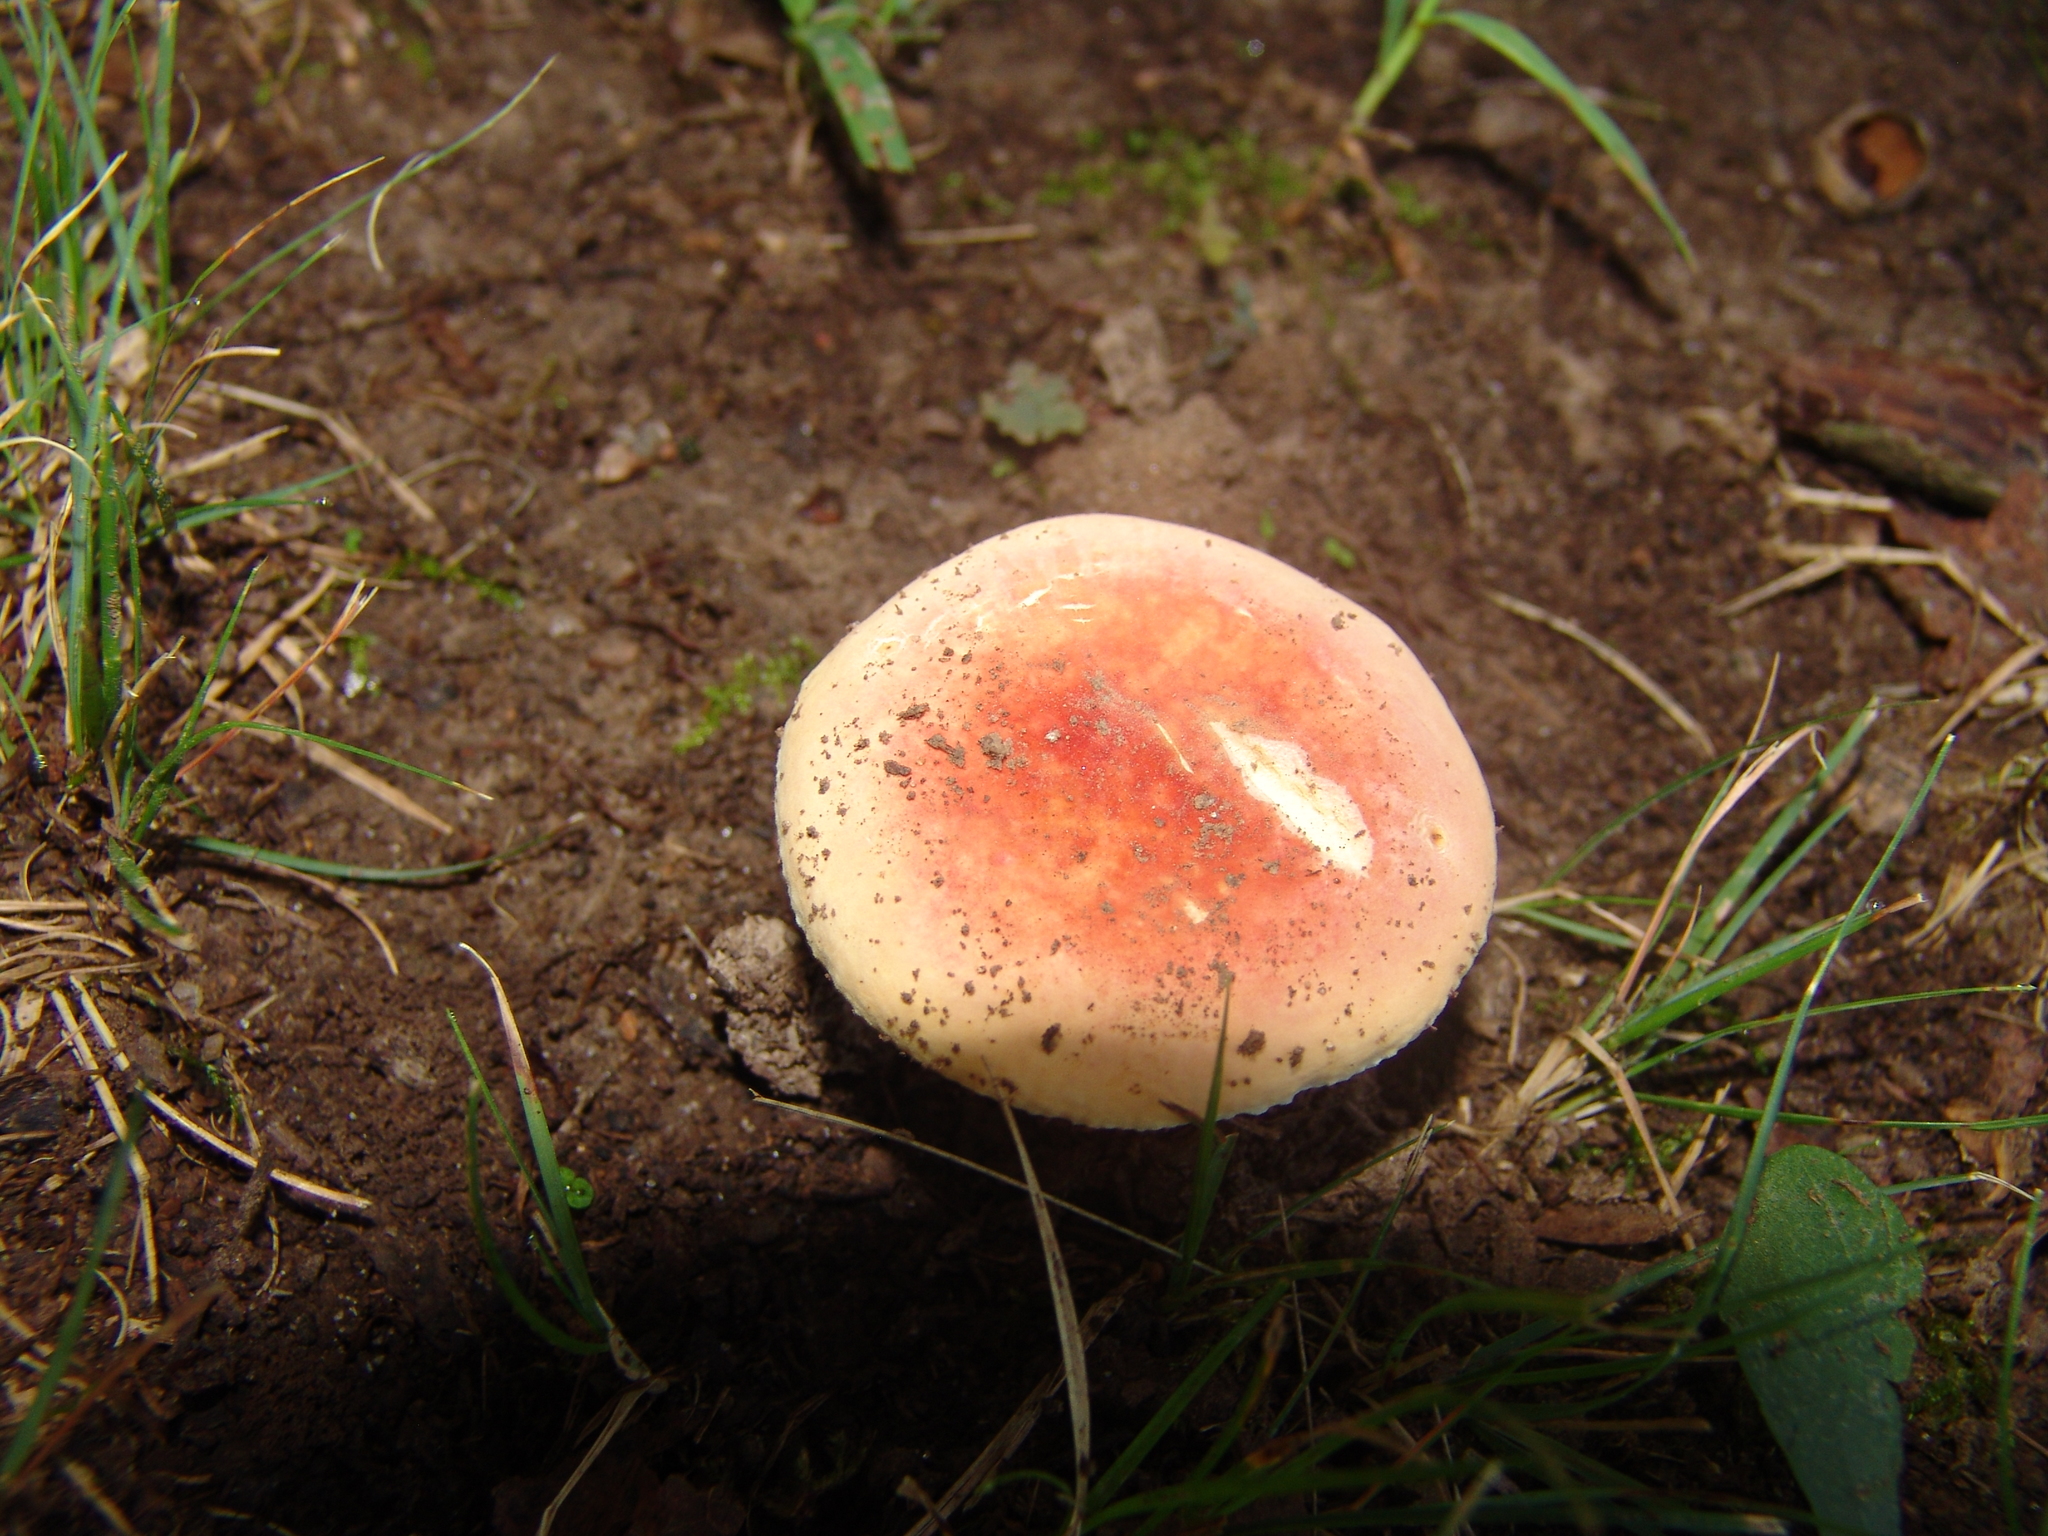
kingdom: Fungi
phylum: Basidiomycota
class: Agaricomycetes
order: Russulales
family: Russulaceae
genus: Russula
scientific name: Russula
